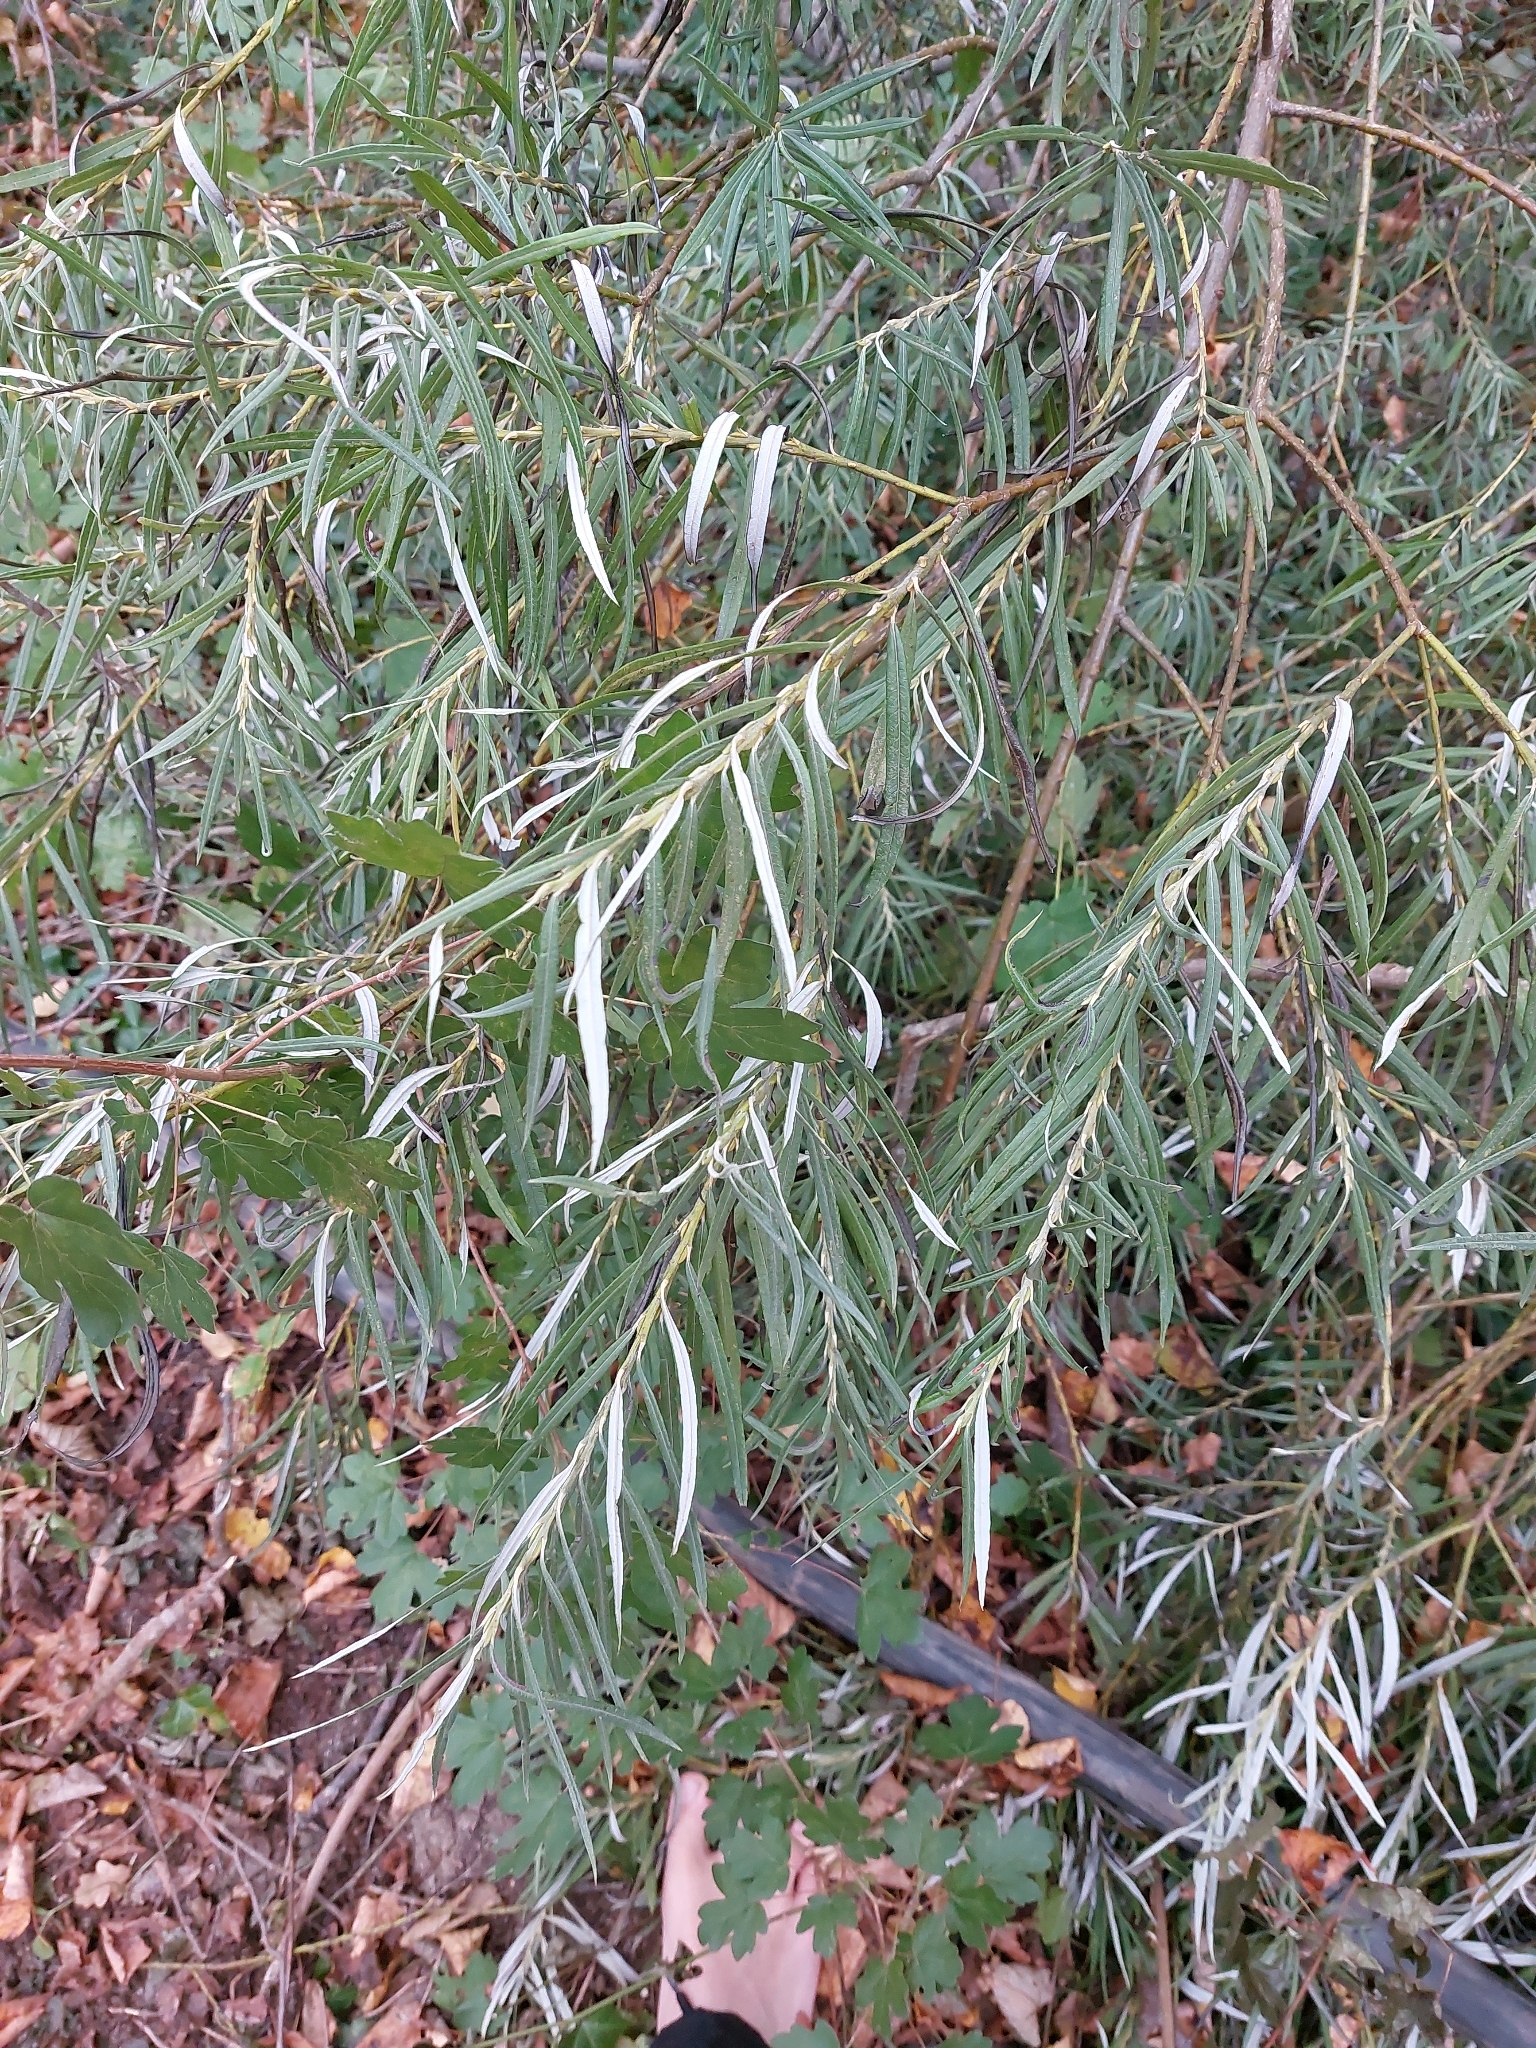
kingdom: Plantae
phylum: Tracheophyta
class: Magnoliopsida
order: Malpighiales
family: Salicaceae
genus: Salix
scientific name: Salix eleagnos
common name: Elaeagnus willow
